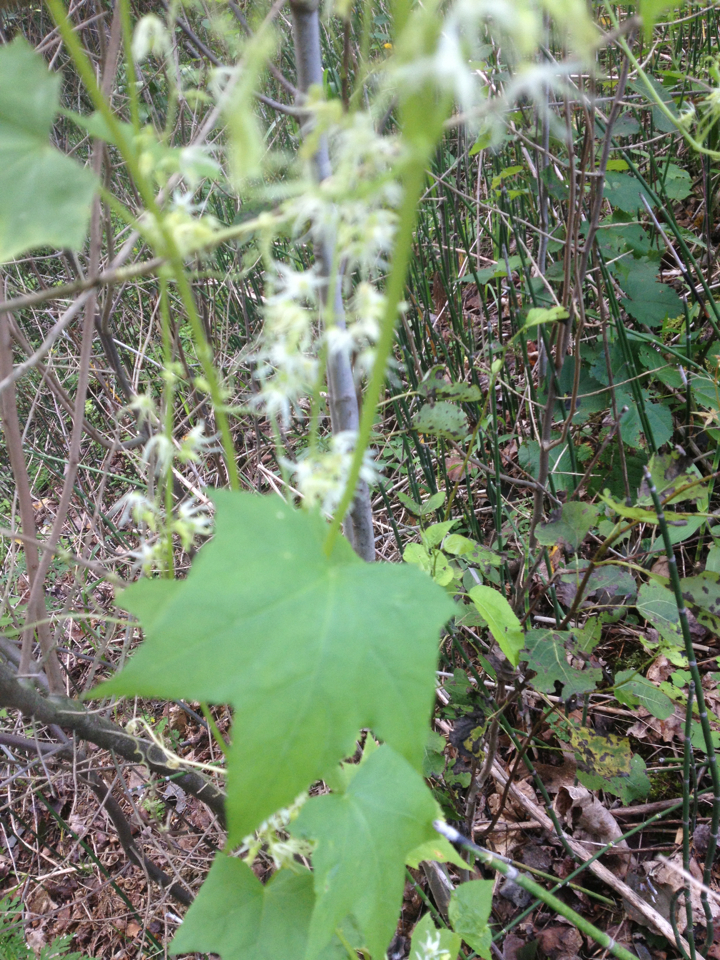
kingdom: Plantae
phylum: Tracheophyta
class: Magnoliopsida
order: Cucurbitales
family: Cucurbitaceae
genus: Echinocystis
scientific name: Echinocystis lobata
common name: Wild cucumber
